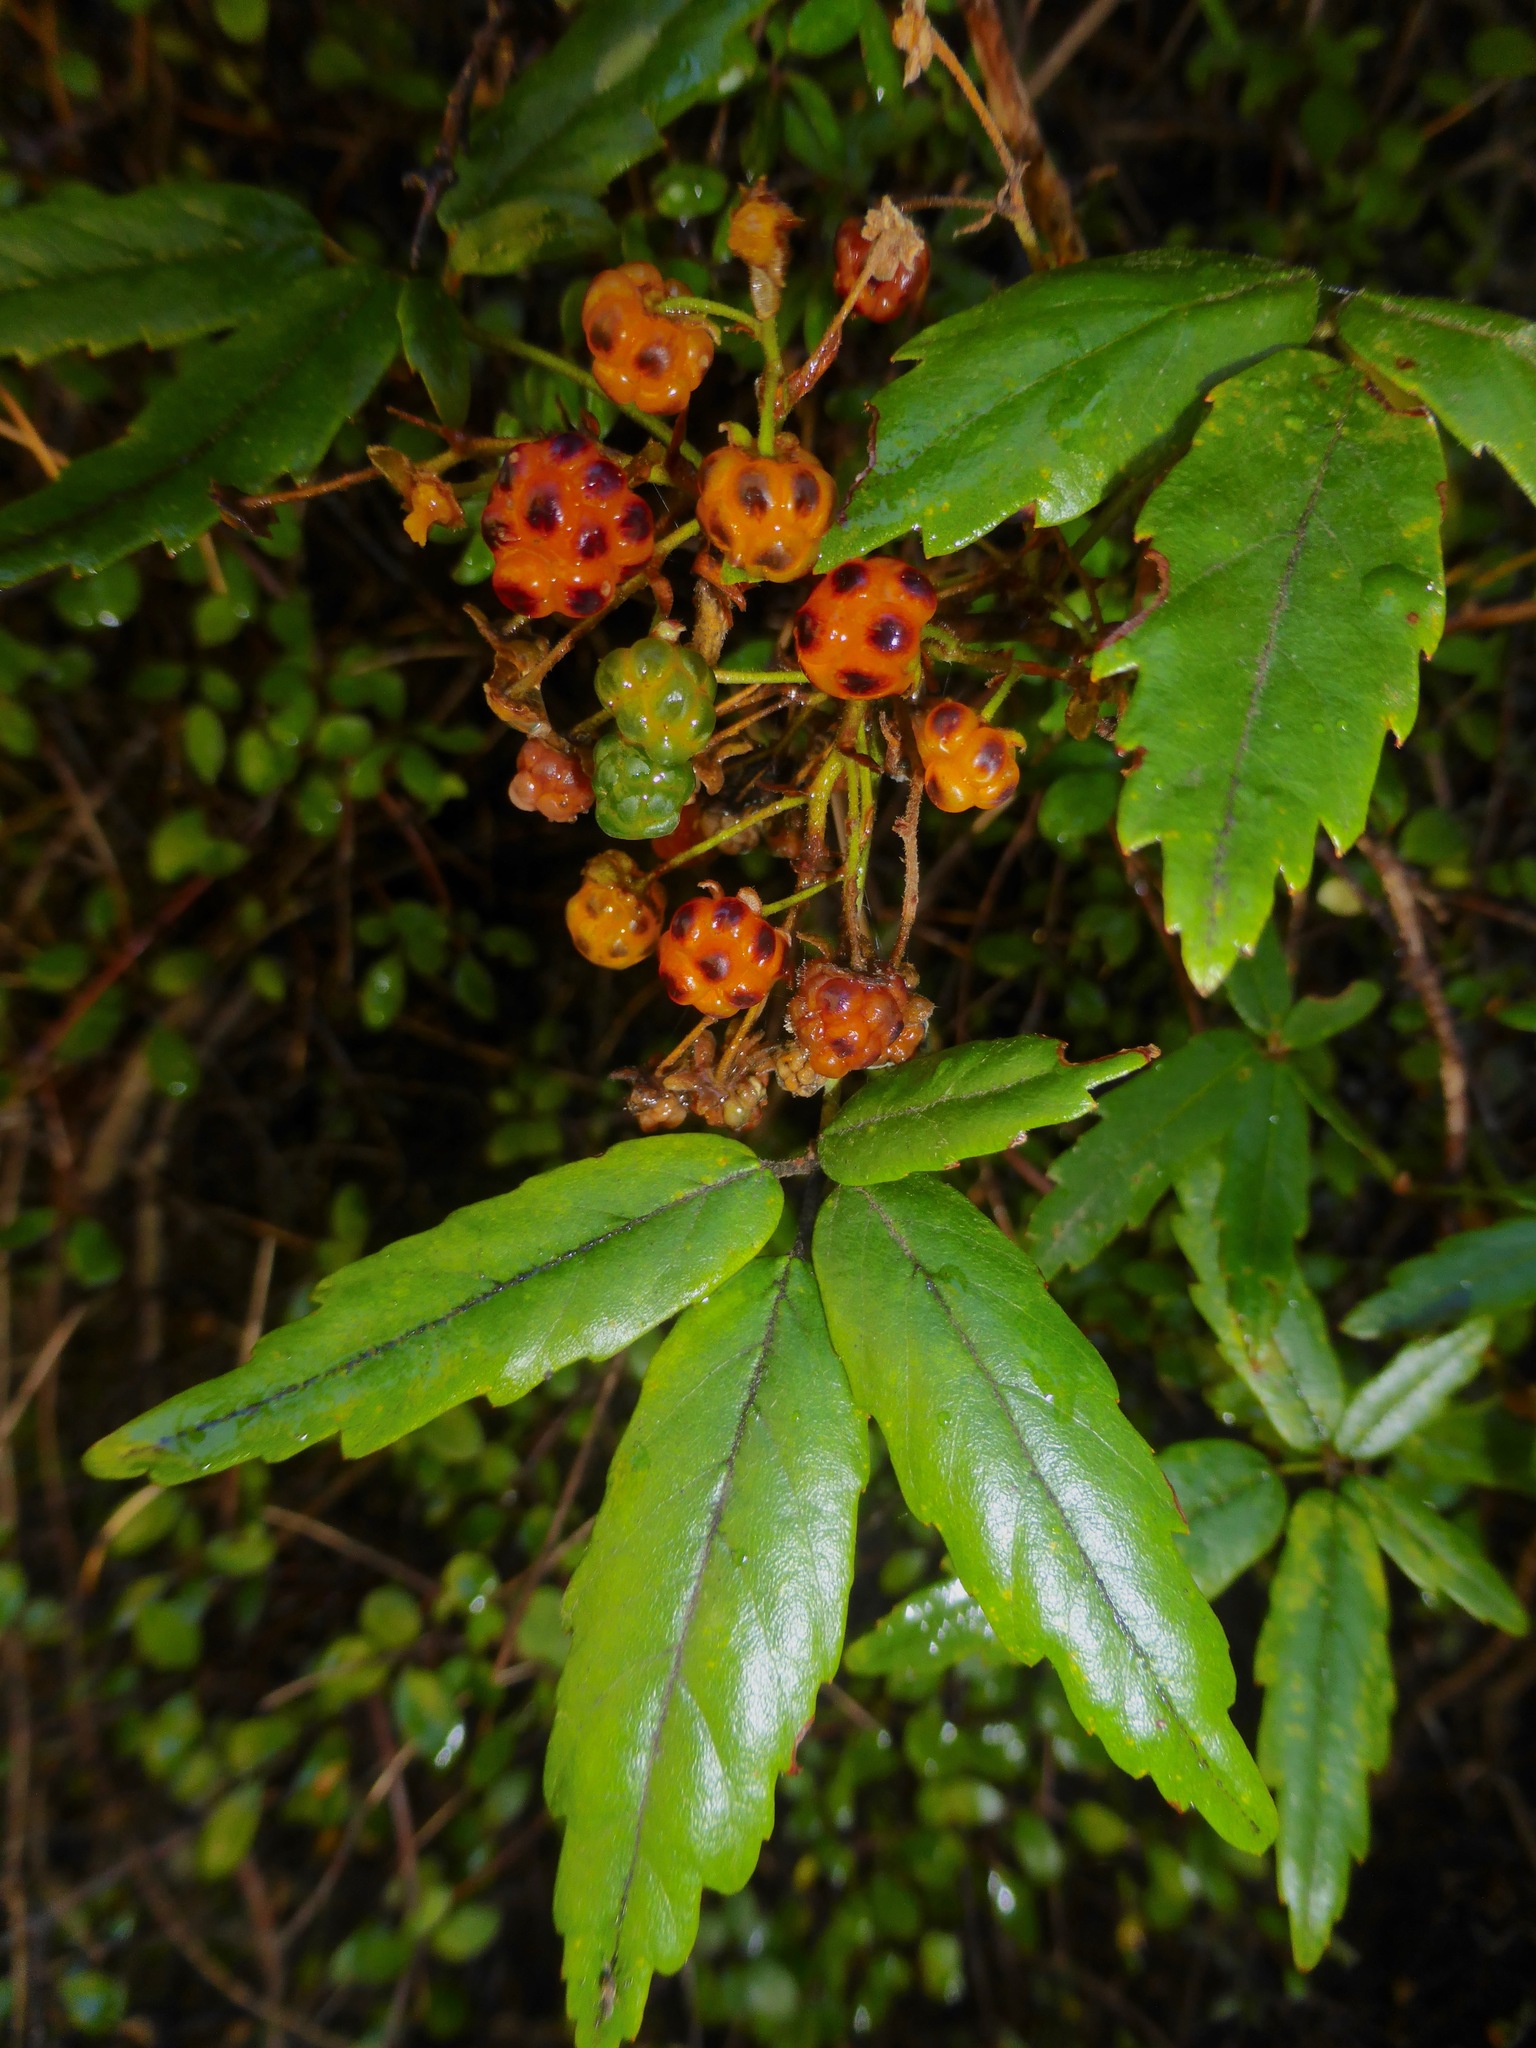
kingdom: Plantae
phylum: Tracheophyta
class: Magnoliopsida
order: Rosales
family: Rosaceae
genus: Rubus
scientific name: Rubus schmidelioides
